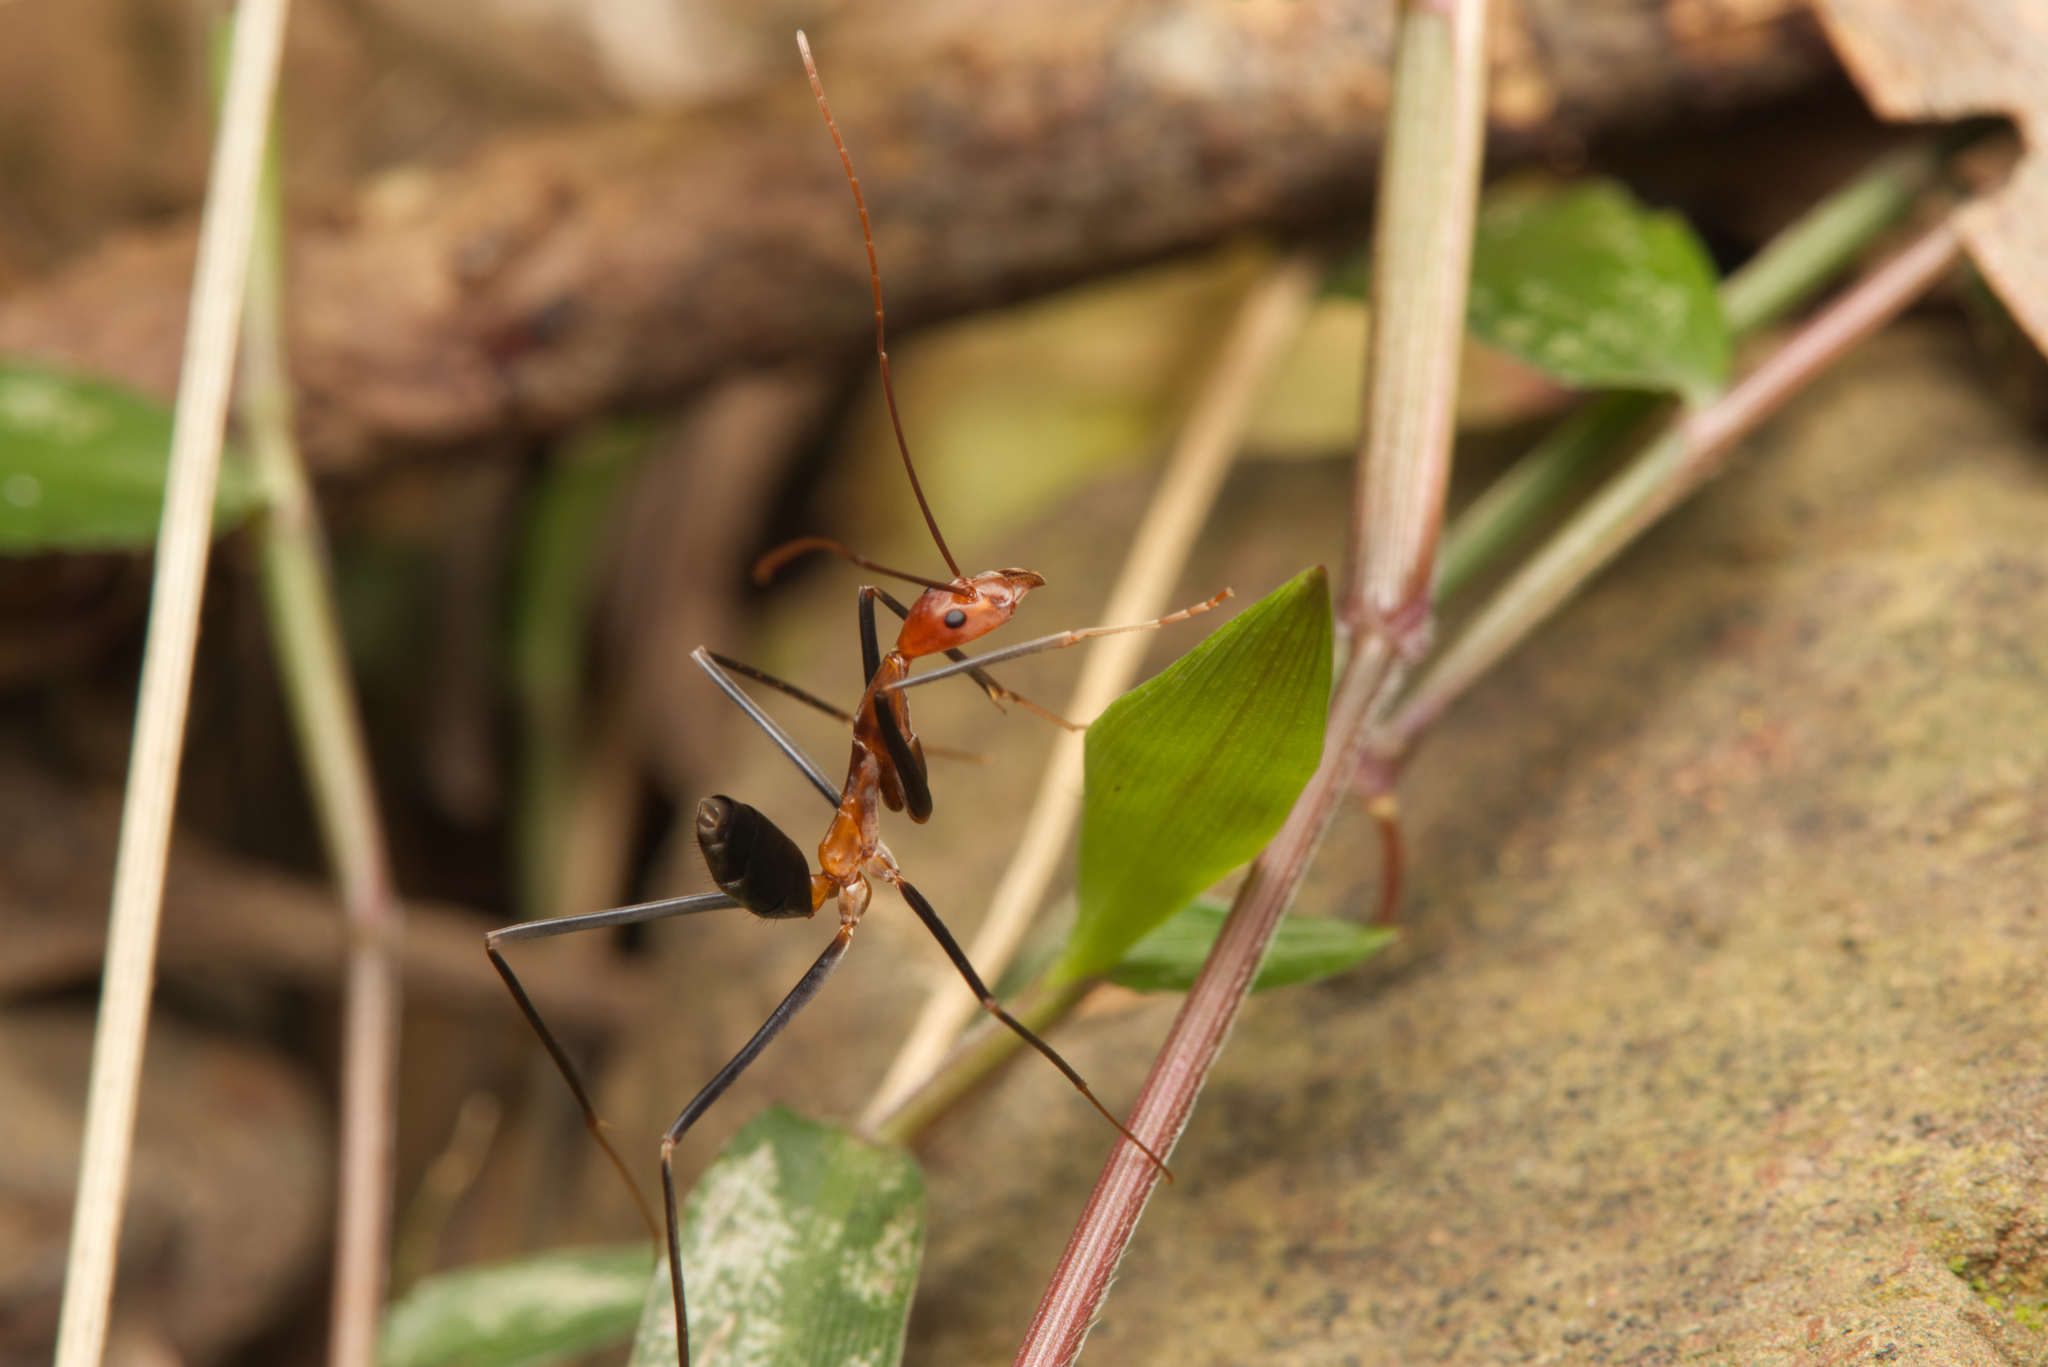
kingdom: Animalia
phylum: Arthropoda
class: Insecta
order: Hymenoptera
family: Formicidae
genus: Leptomyrmex
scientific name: Leptomyrmex varians
